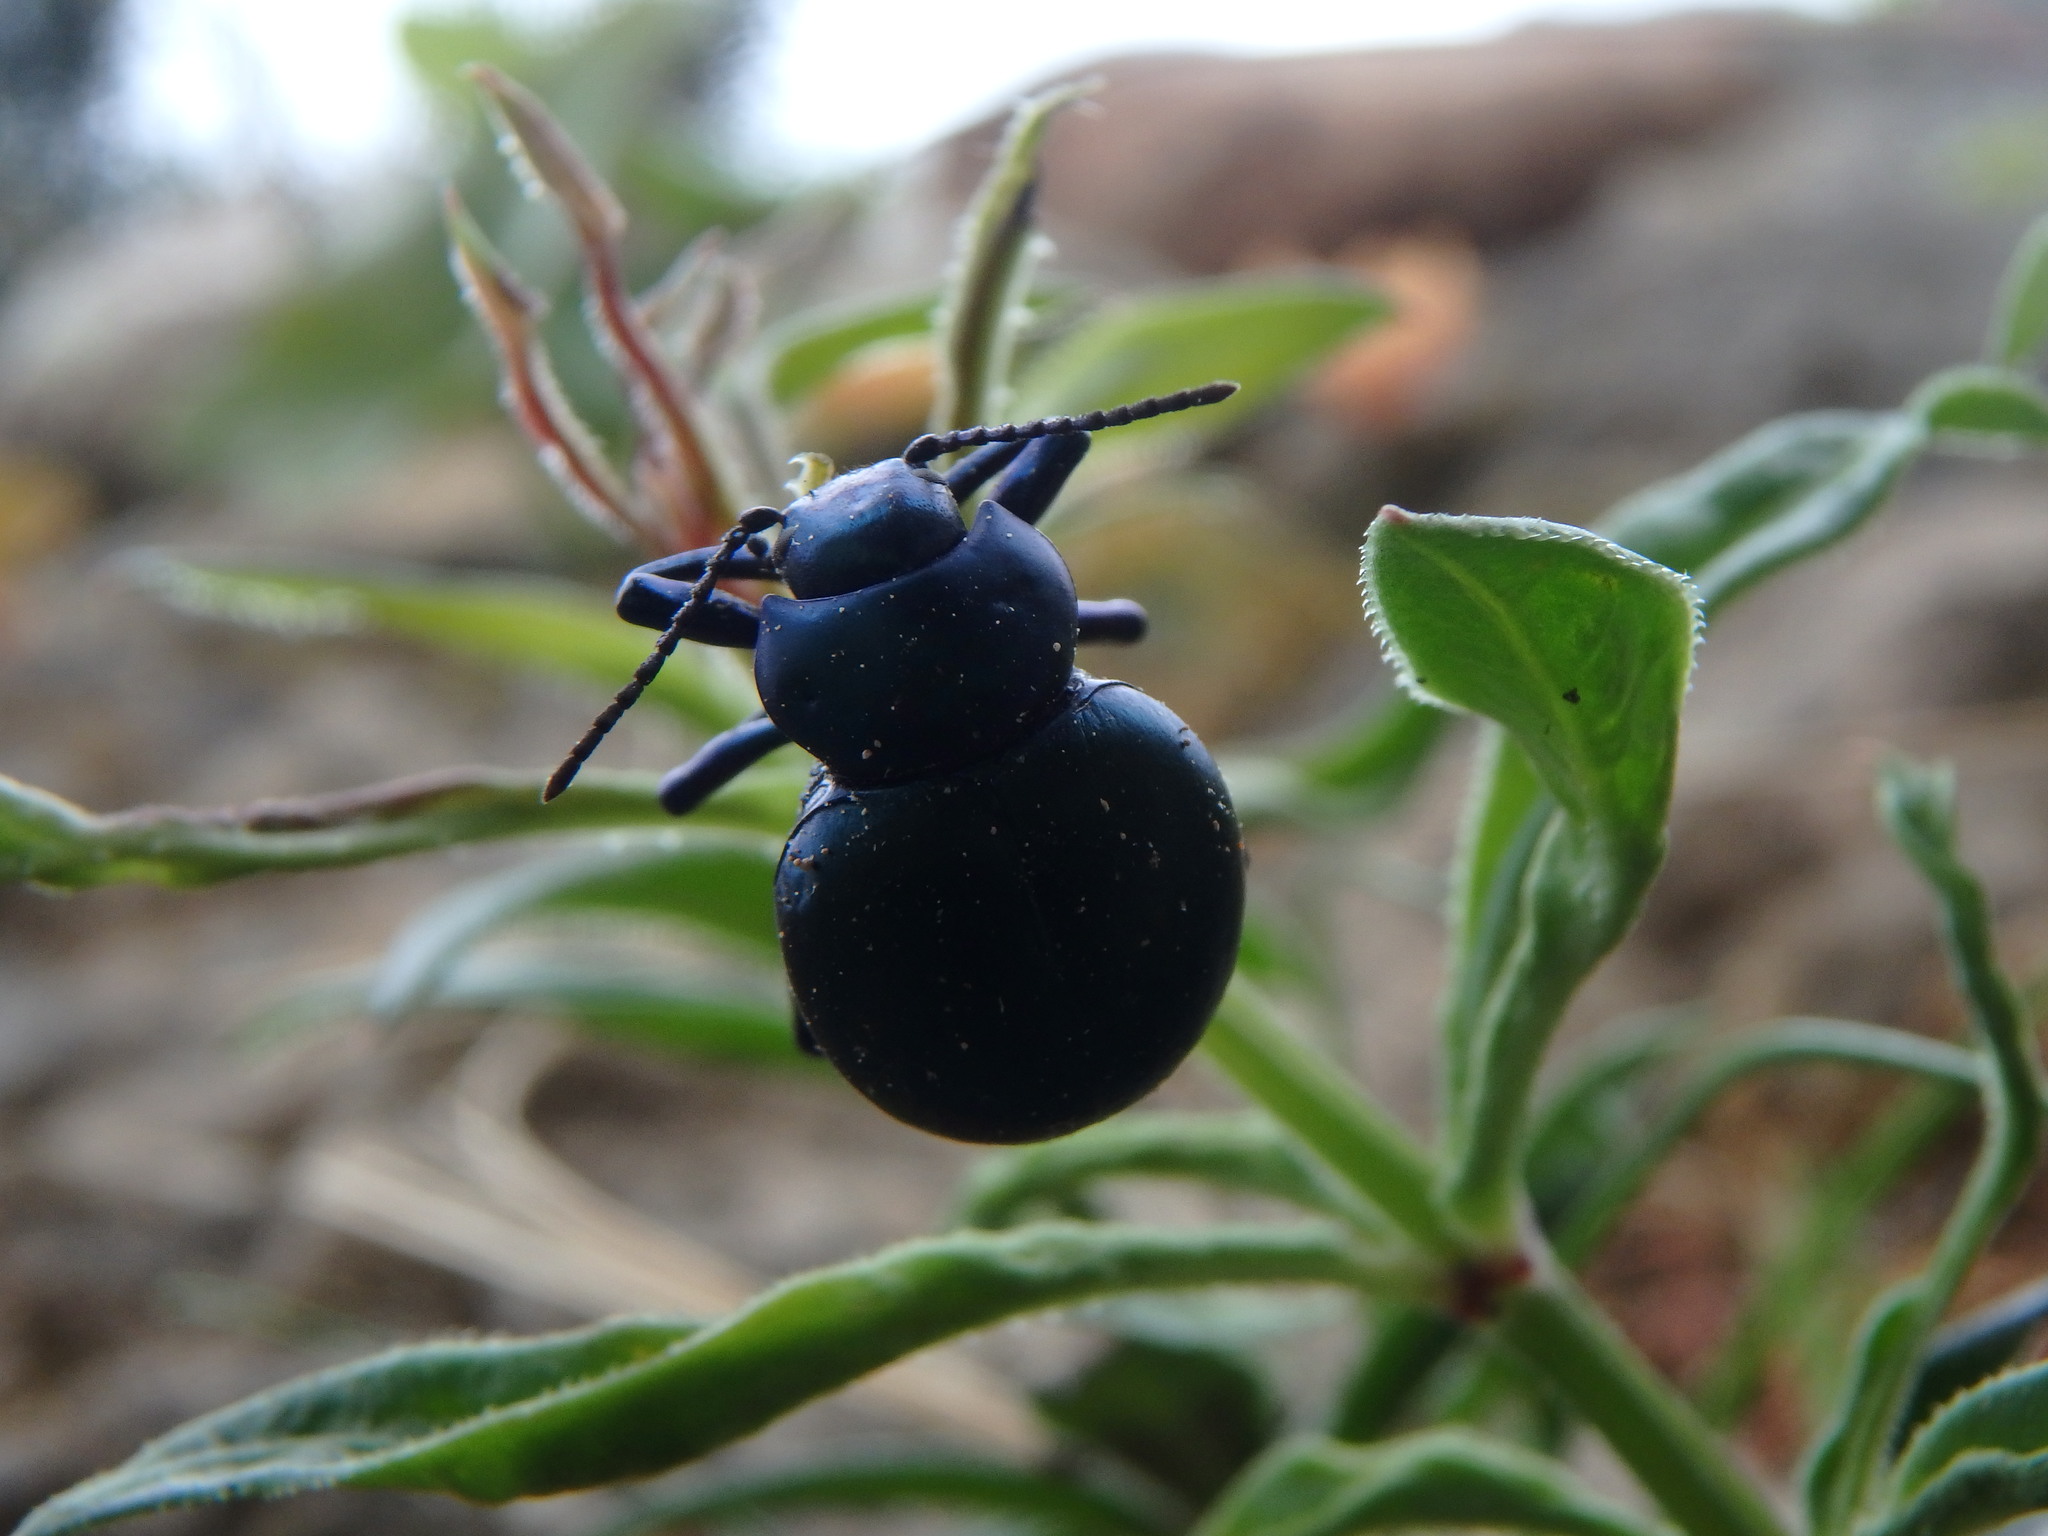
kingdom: Animalia
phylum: Arthropoda
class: Insecta
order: Coleoptera
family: Chrysomelidae
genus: Timarcha
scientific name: Timarcha balearica
